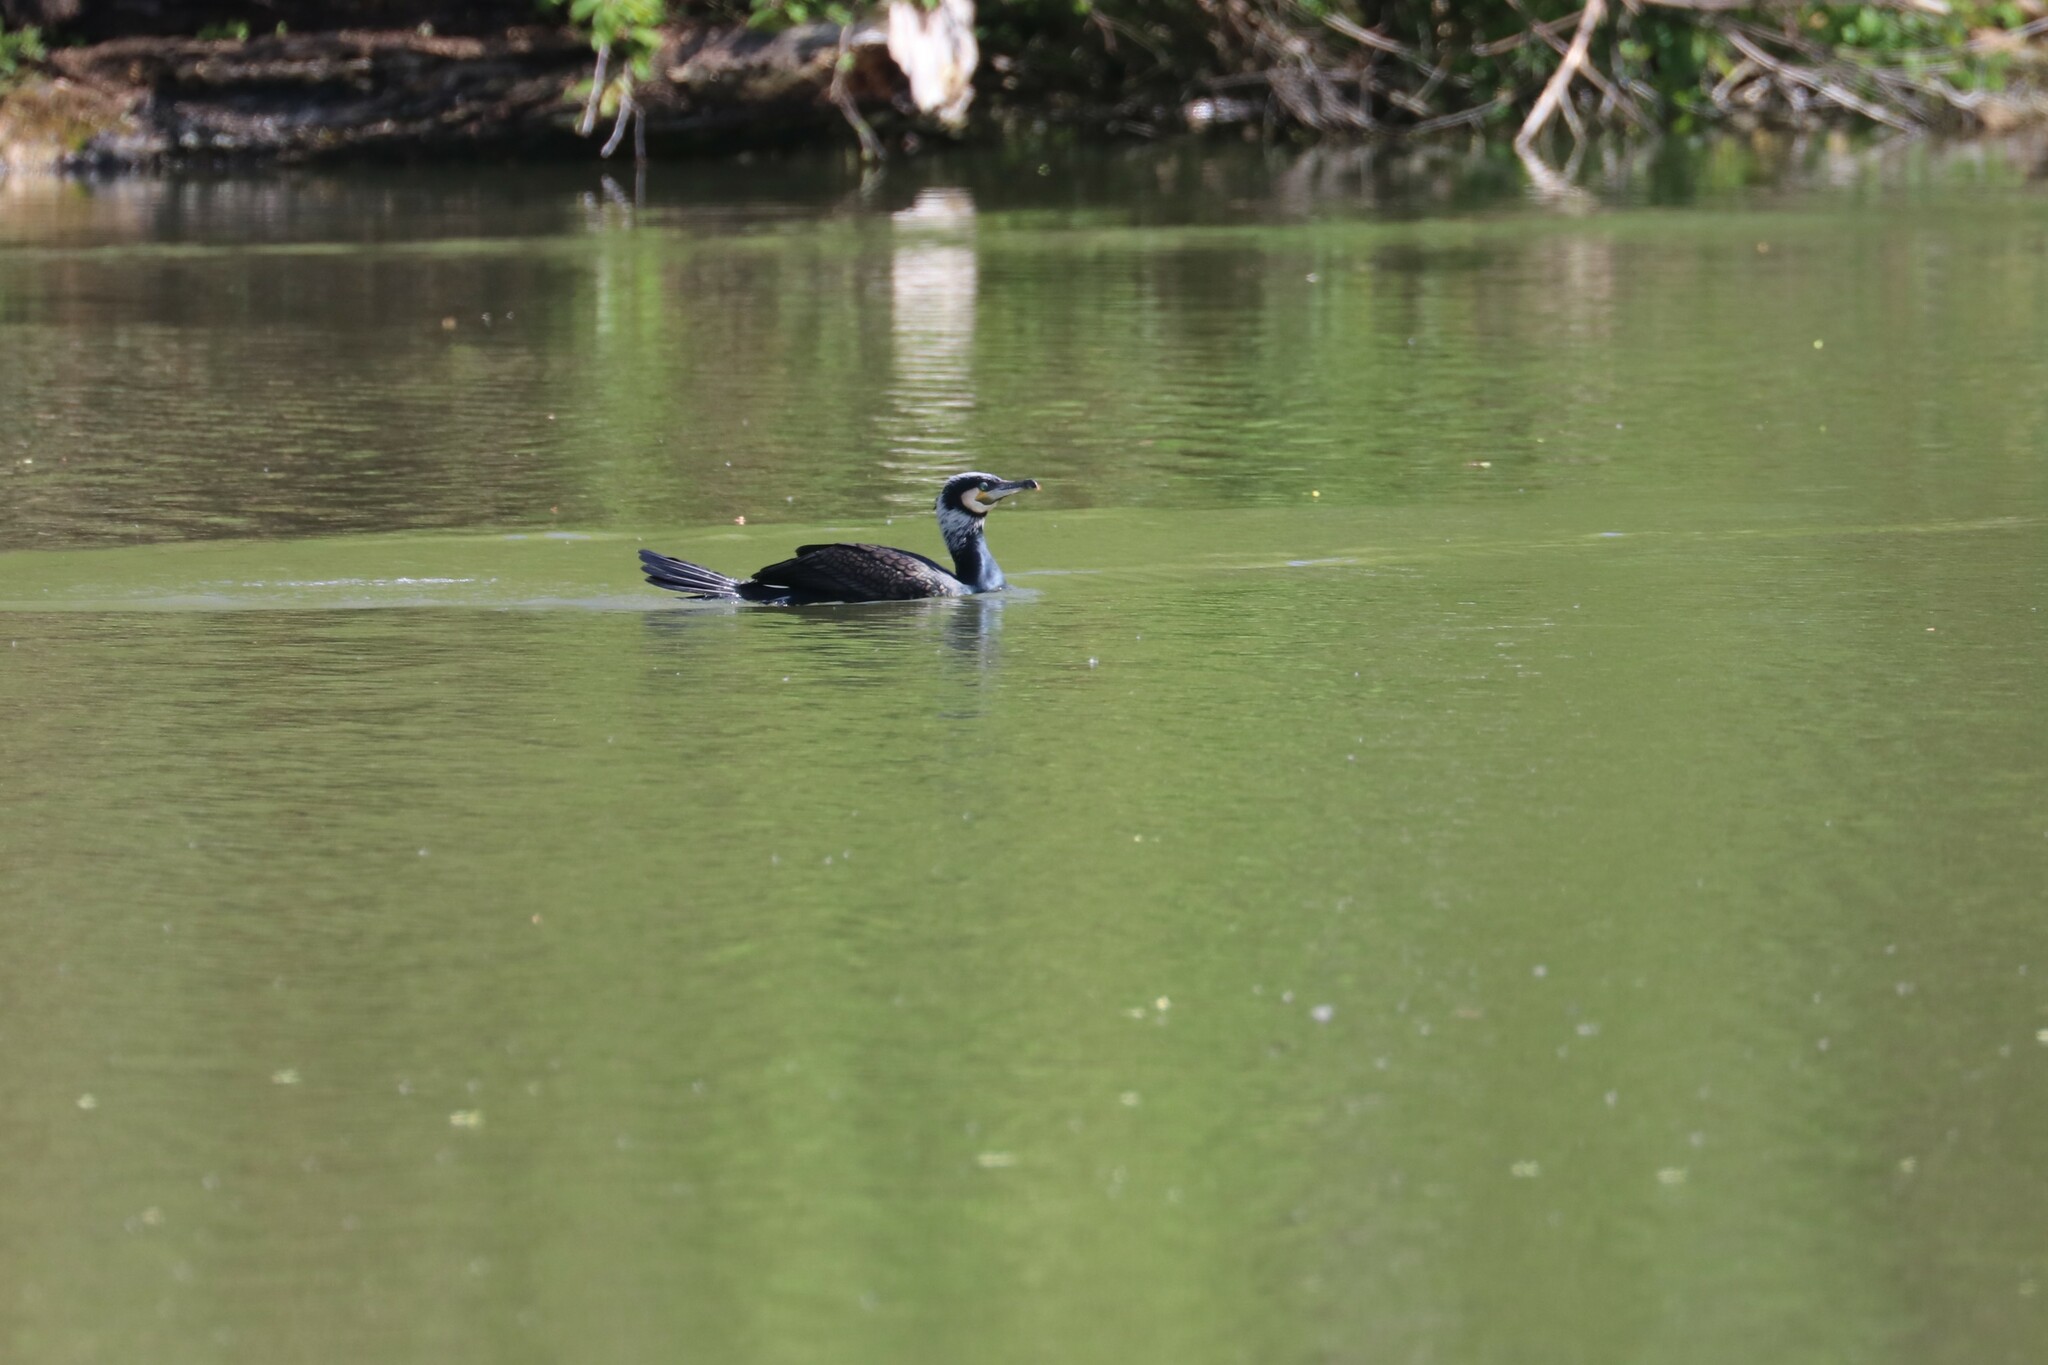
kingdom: Animalia
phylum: Chordata
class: Aves
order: Suliformes
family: Phalacrocoracidae
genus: Phalacrocorax
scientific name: Phalacrocorax carbo
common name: Great cormorant
